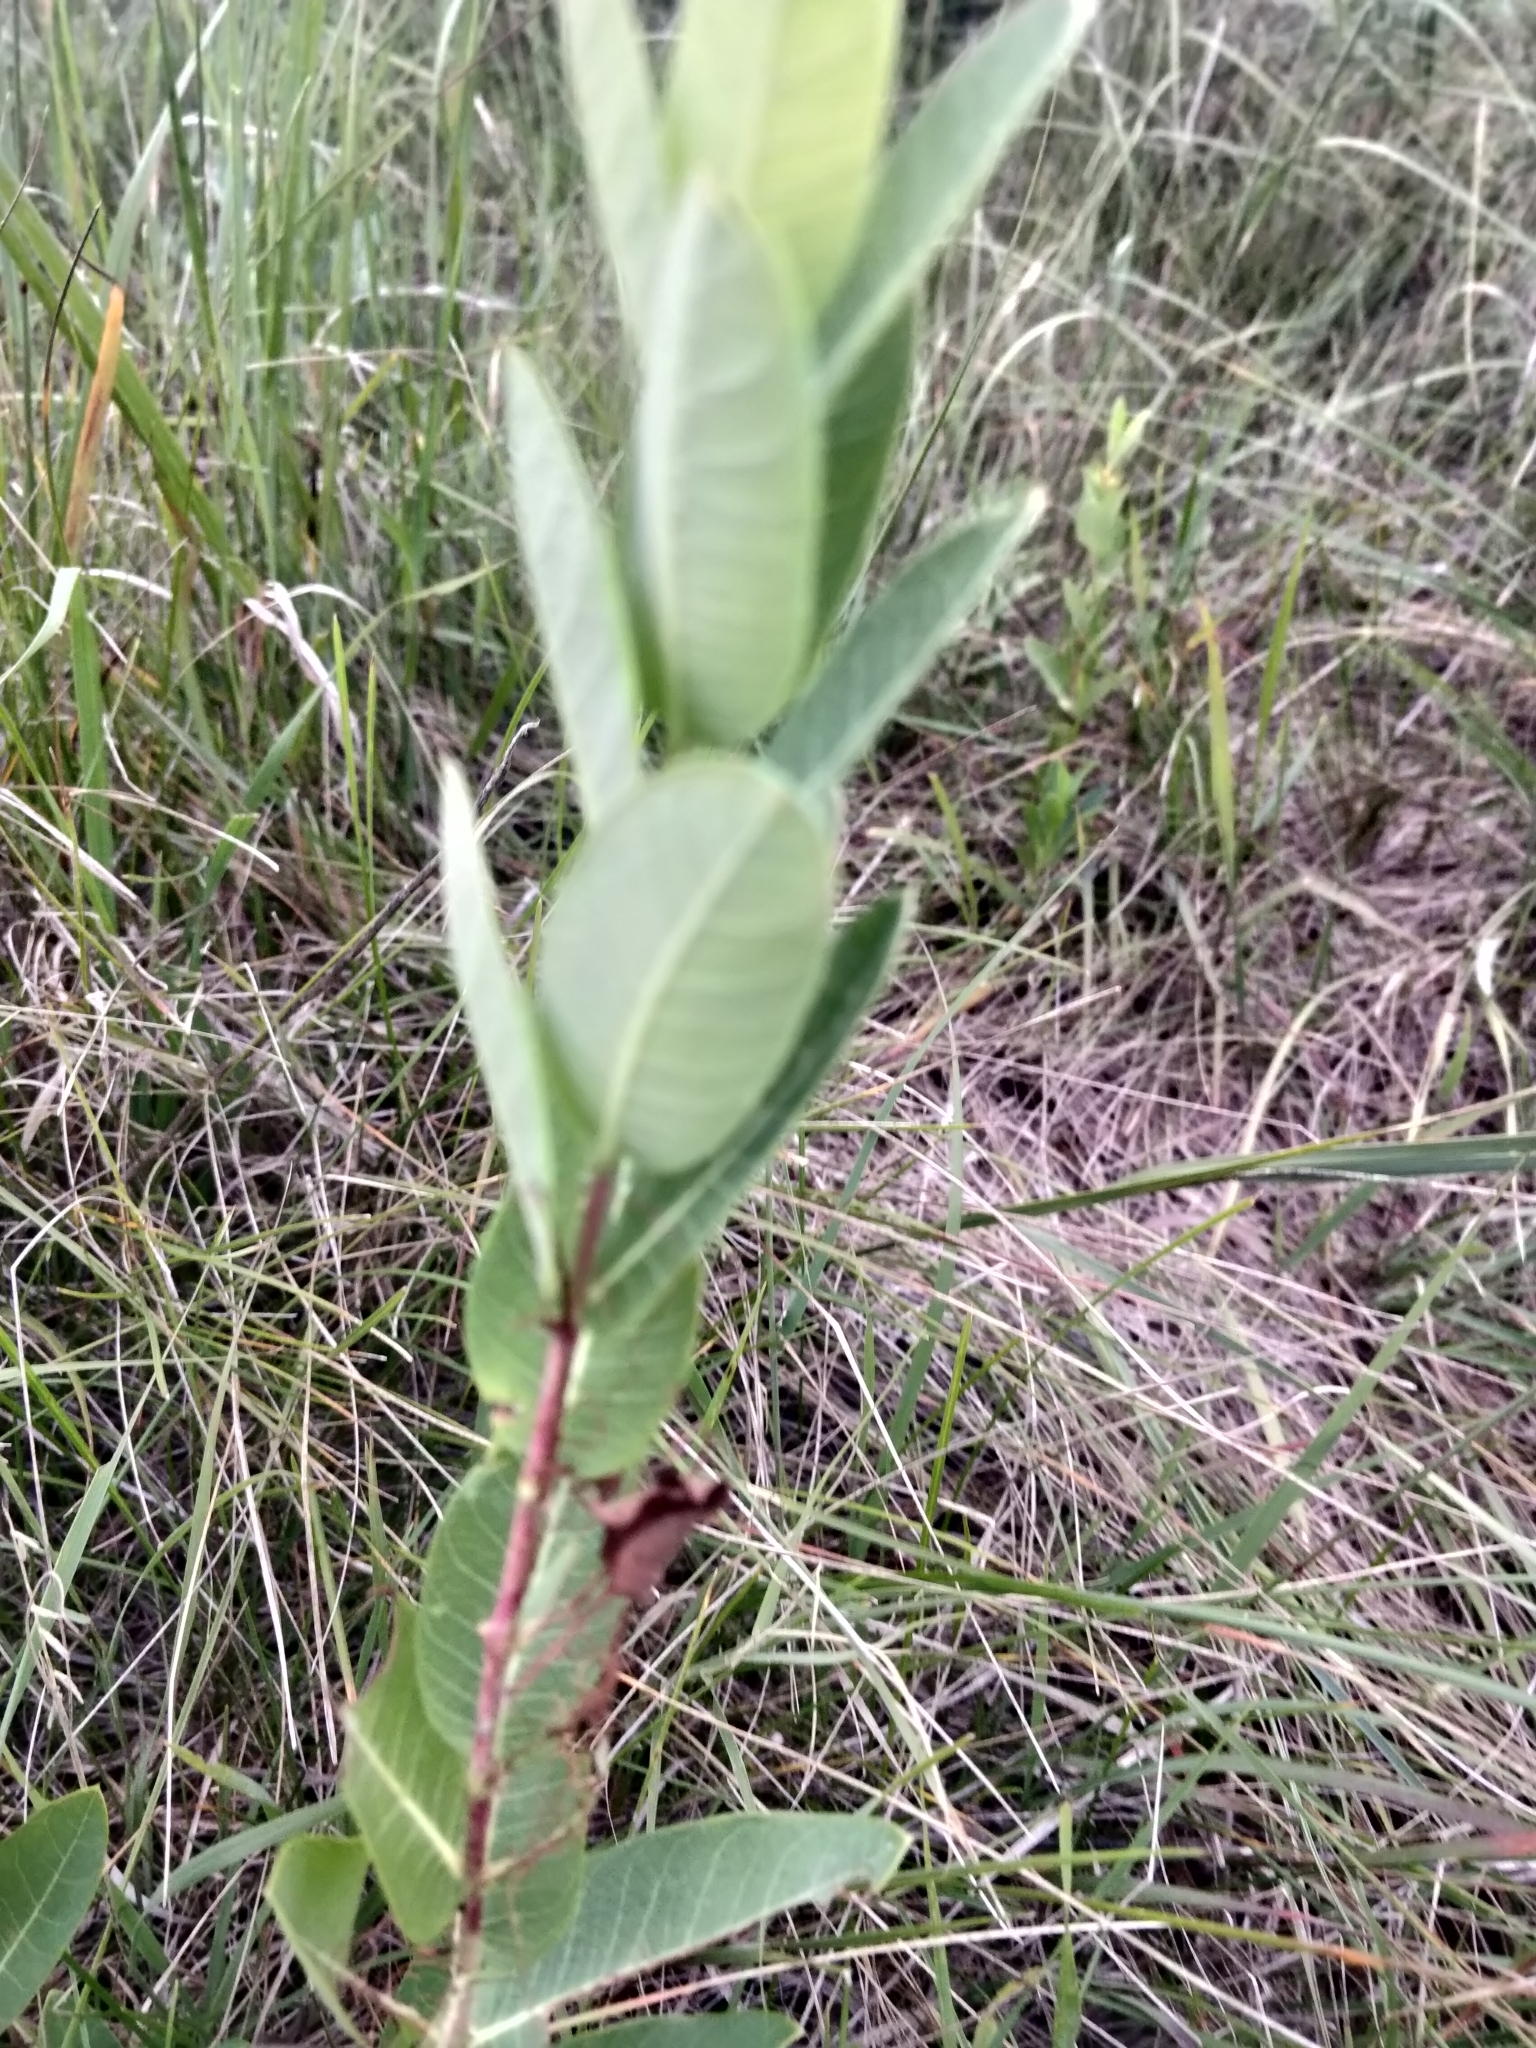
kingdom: Plantae
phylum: Tracheophyta
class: Magnoliopsida
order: Gentianales
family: Apocynaceae
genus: Apocynum
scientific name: Apocynum cannabinum
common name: Hemp dogbane
